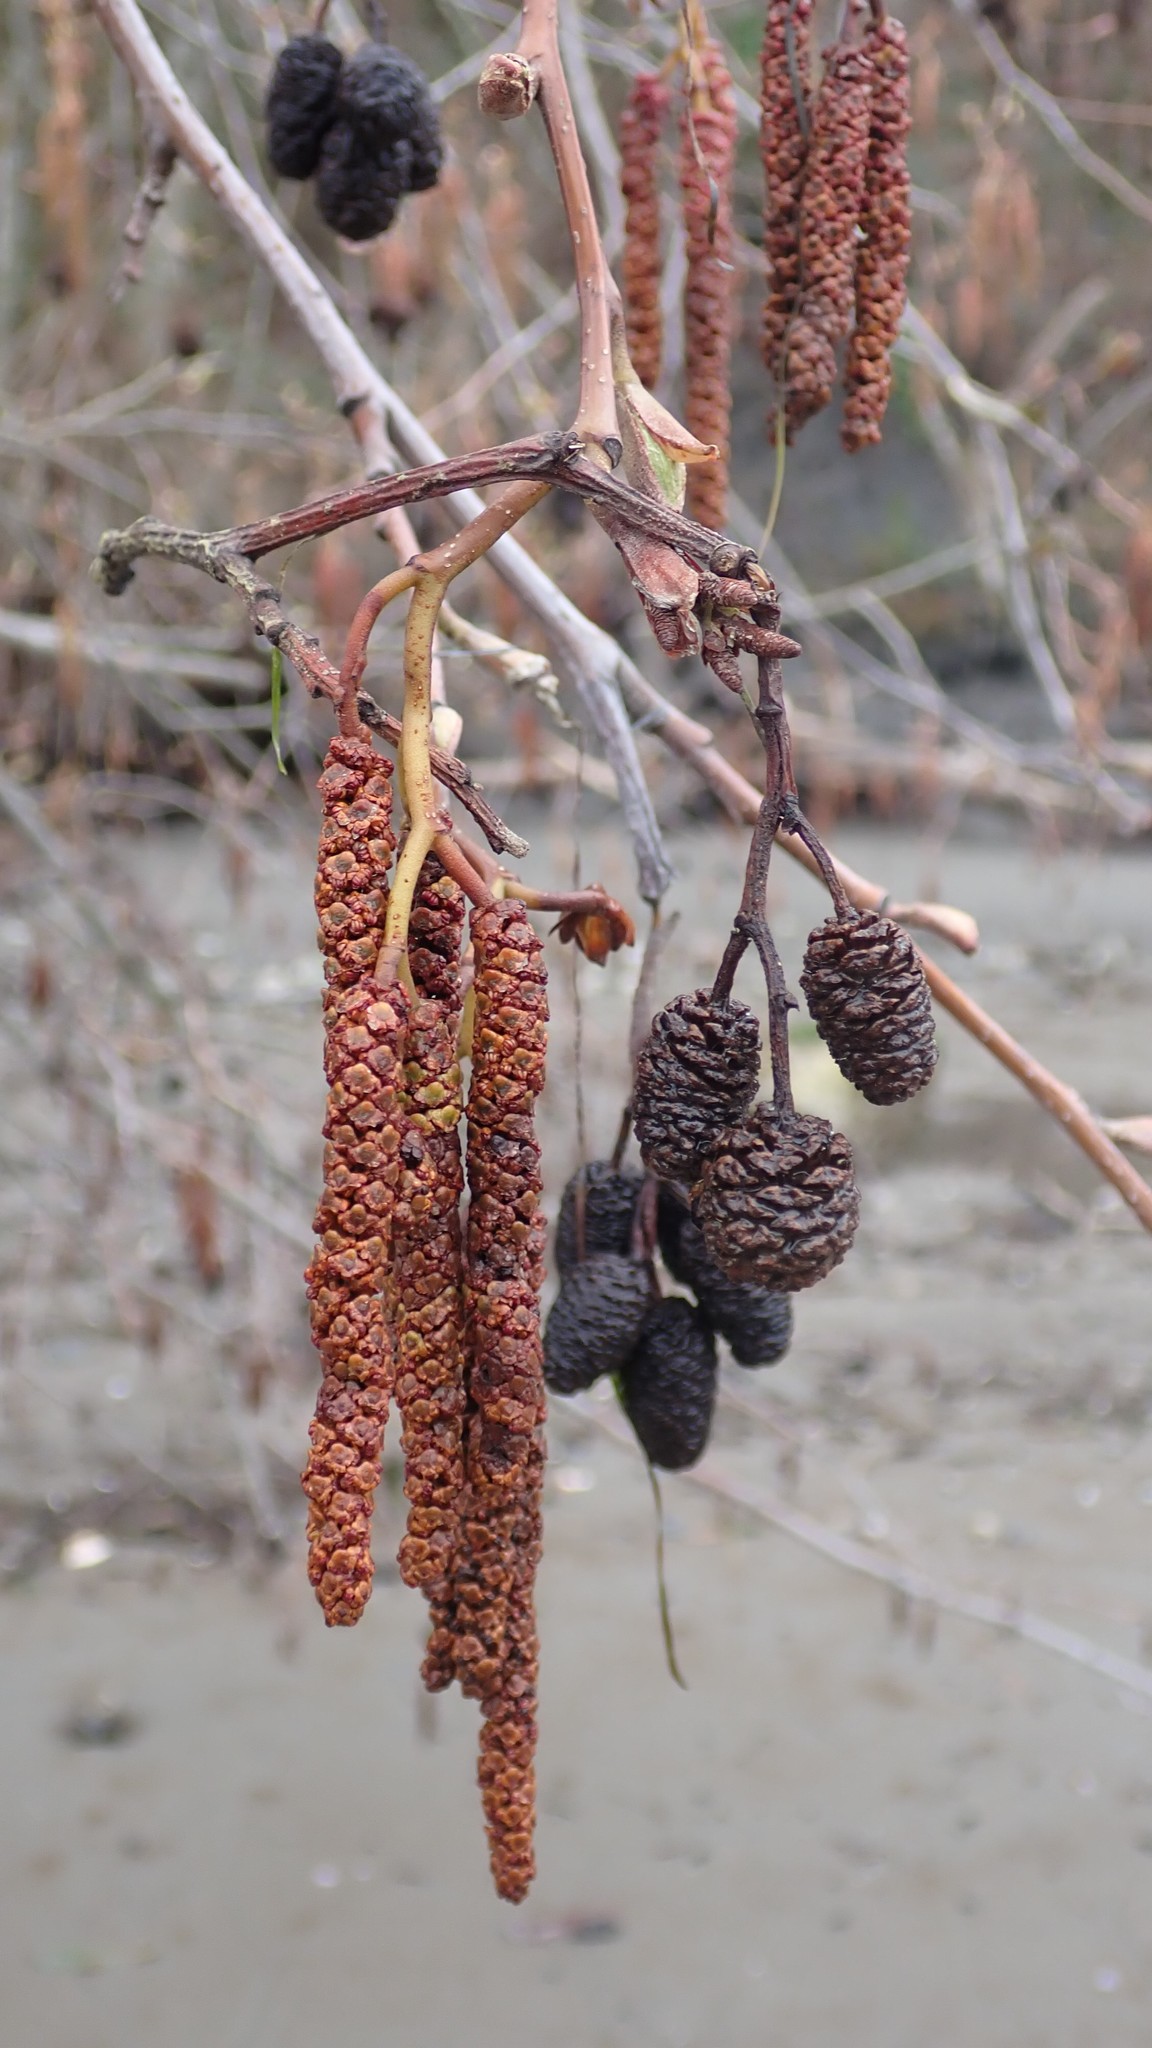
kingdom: Plantae
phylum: Tracheophyta
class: Magnoliopsida
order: Fagales
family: Betulaceae
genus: Alnus
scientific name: Alnus rubra
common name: Red alder
